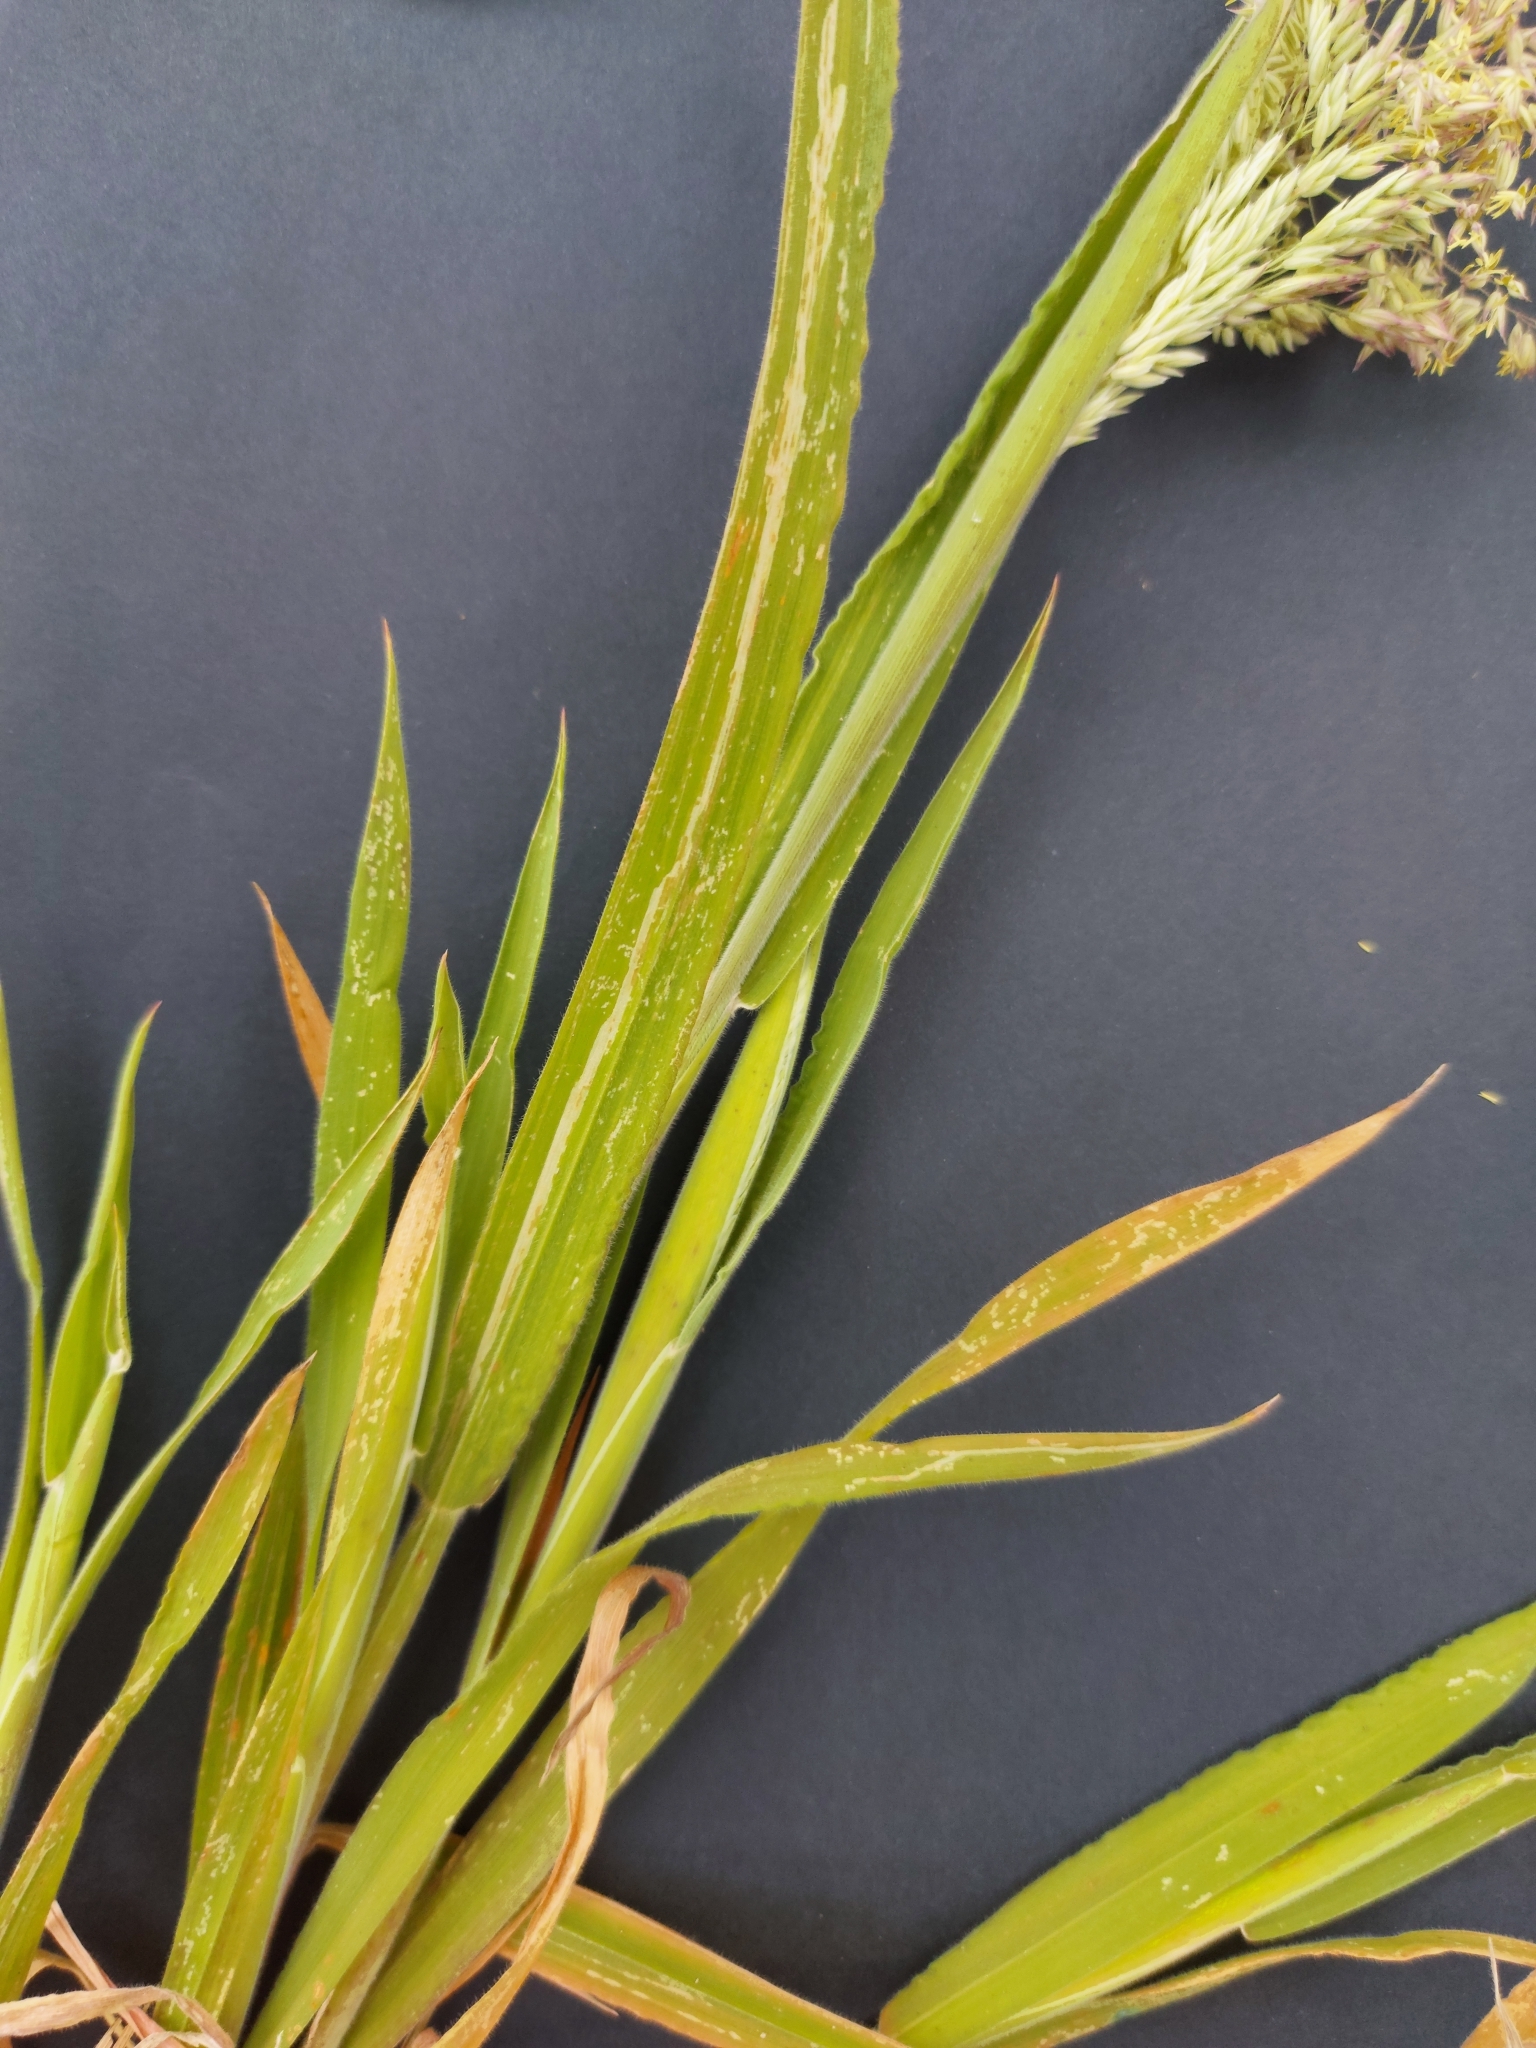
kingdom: Plantae
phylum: Tracheophyta
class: Liliopsida
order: Poales
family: Poaceae
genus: Holcus
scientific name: Holcus lanatus
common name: Yorkshire-fog
